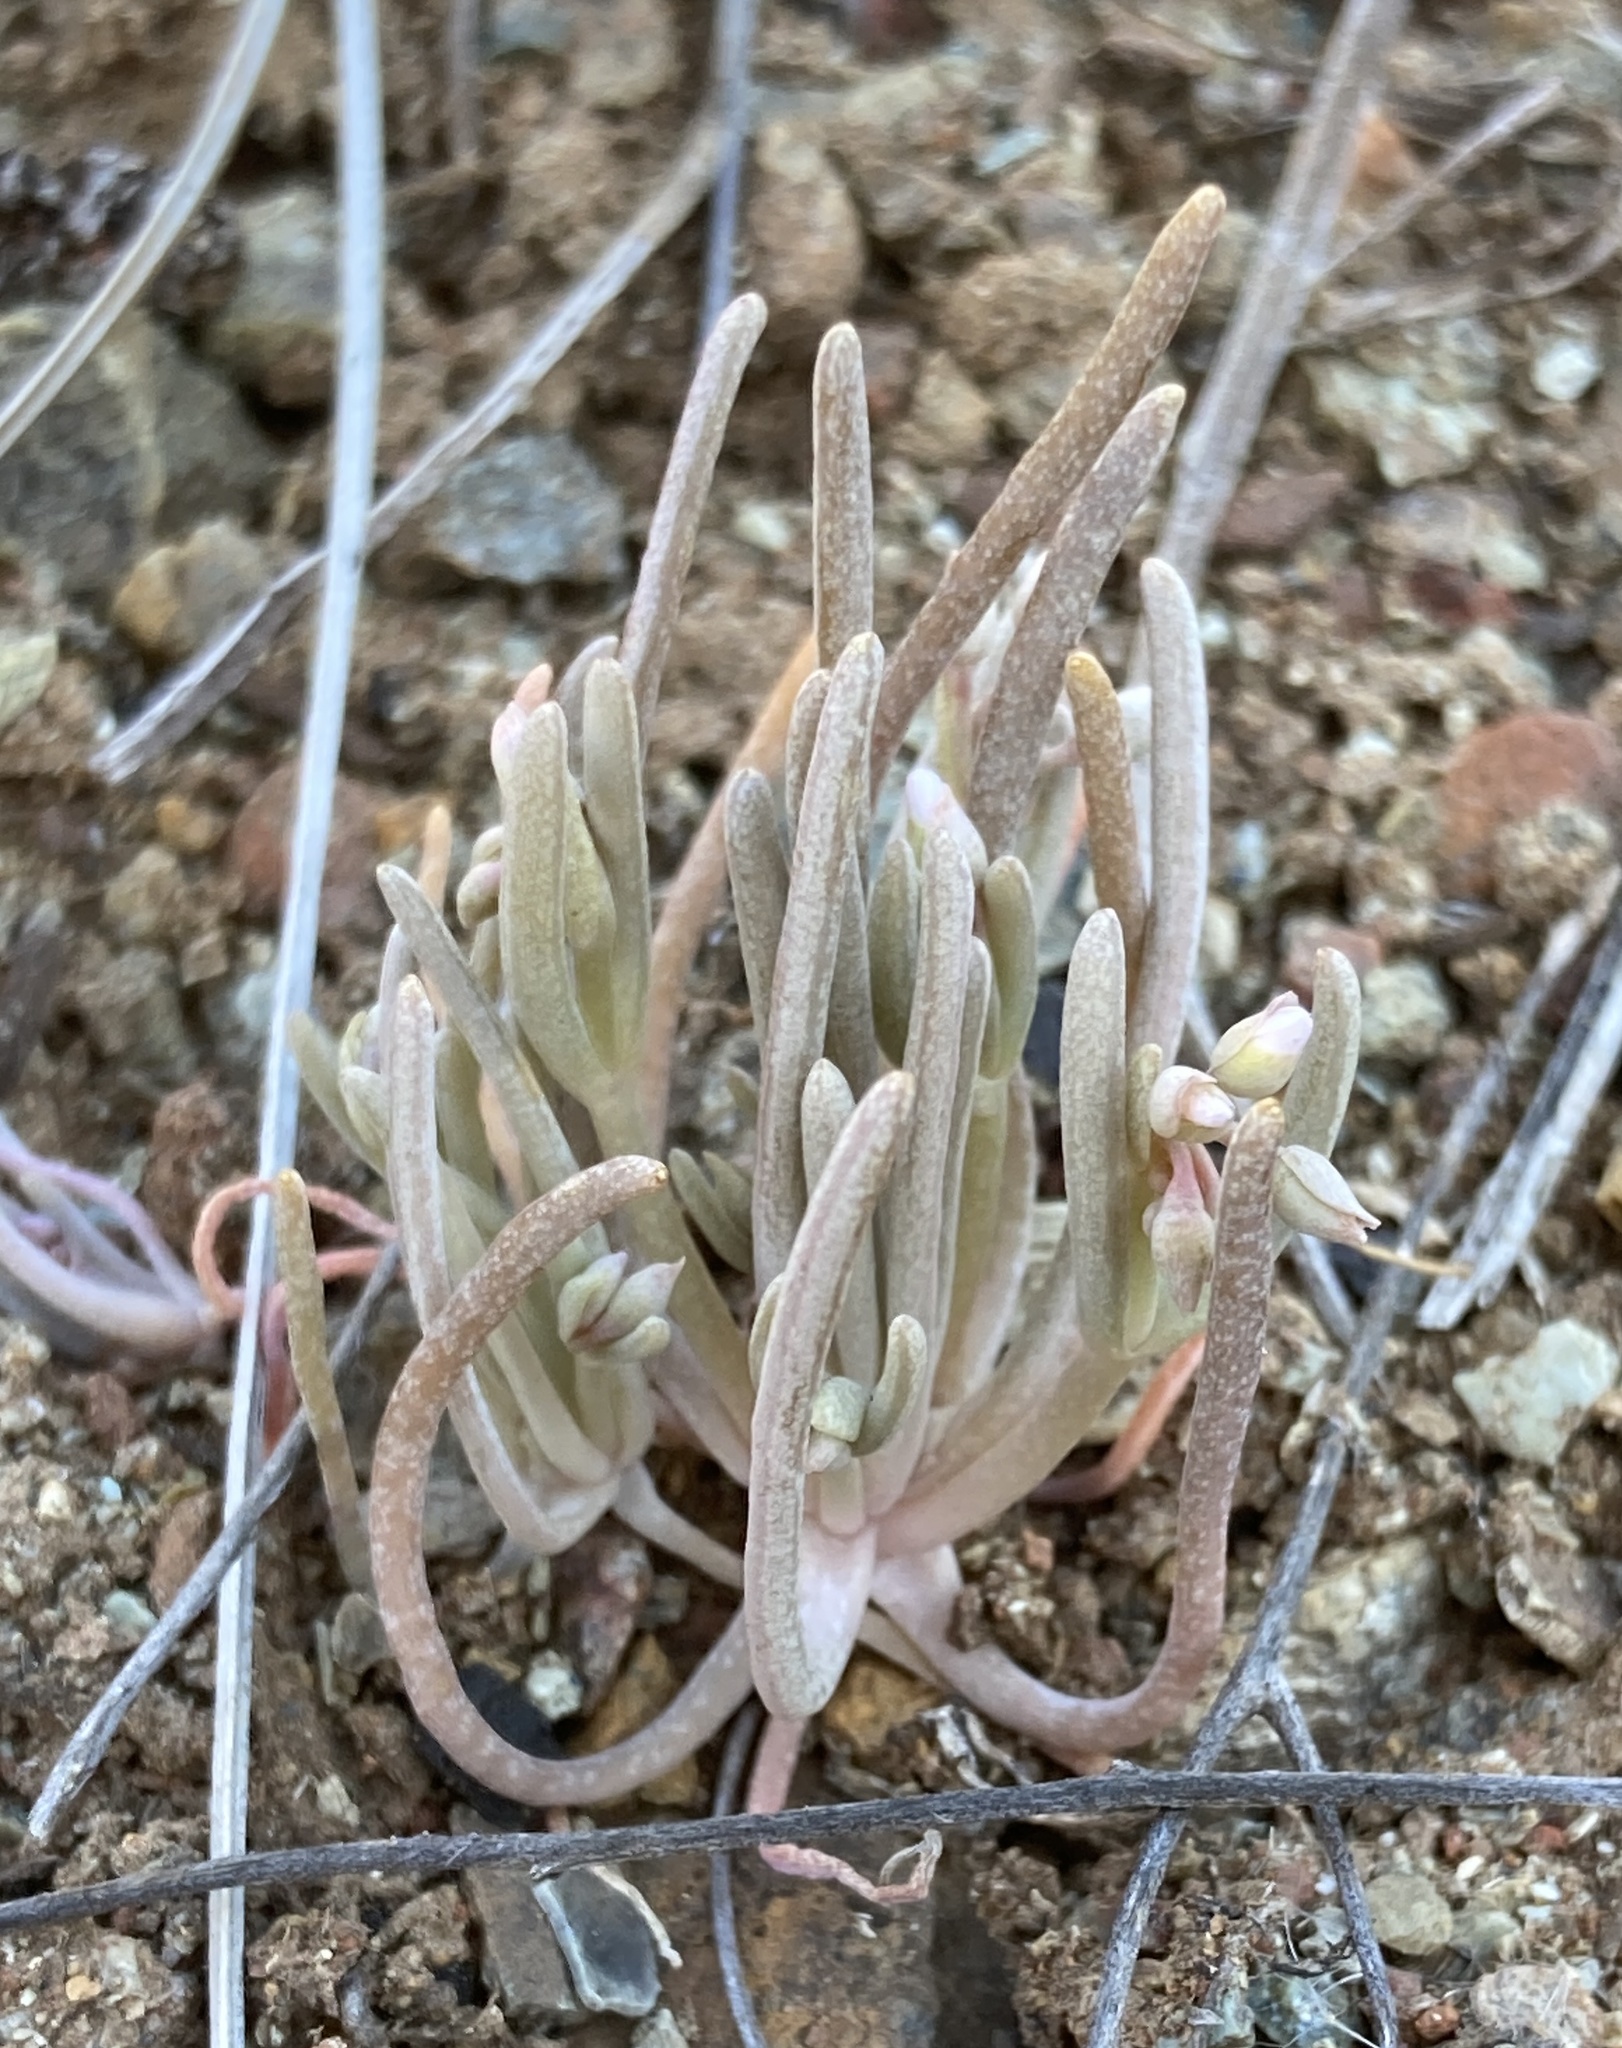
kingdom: Plantae
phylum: Tracheophyta
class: Magnoliopsida
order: Caryophyllales
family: Montiaceae
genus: Claytonia
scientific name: Claytonia exigua
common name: Pale spring beauty
